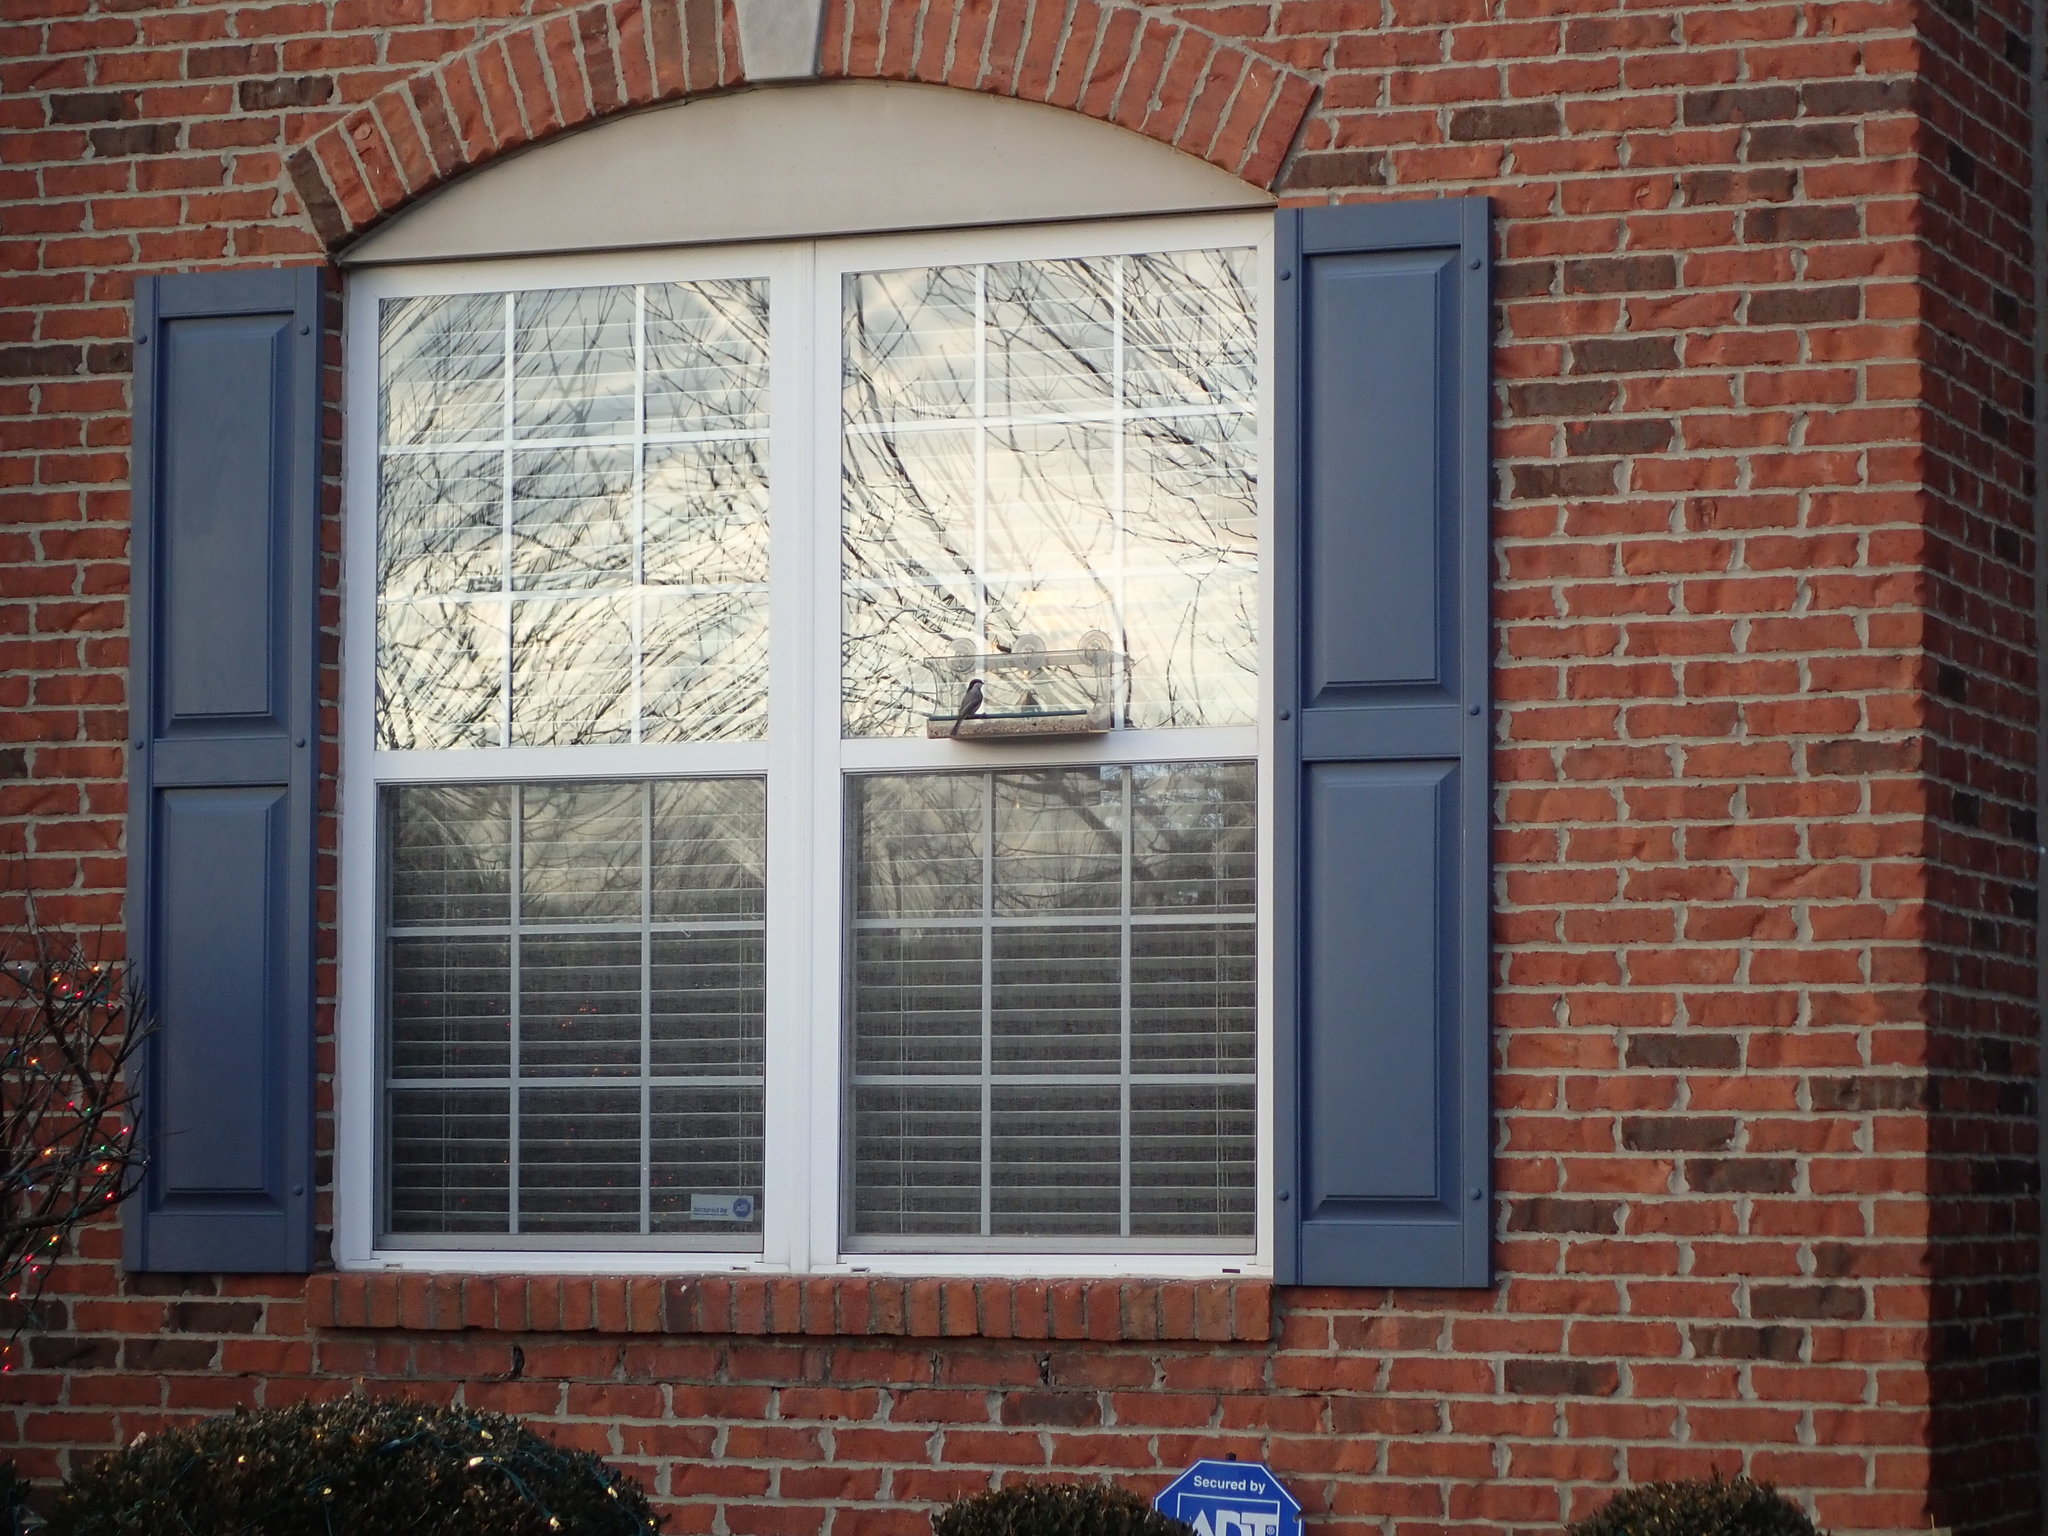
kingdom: Animalia
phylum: Chordata
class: Aves
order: Passeriformes
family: Paridae
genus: Poecile
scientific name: Poecile carolinensis
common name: Carolina chickadee
